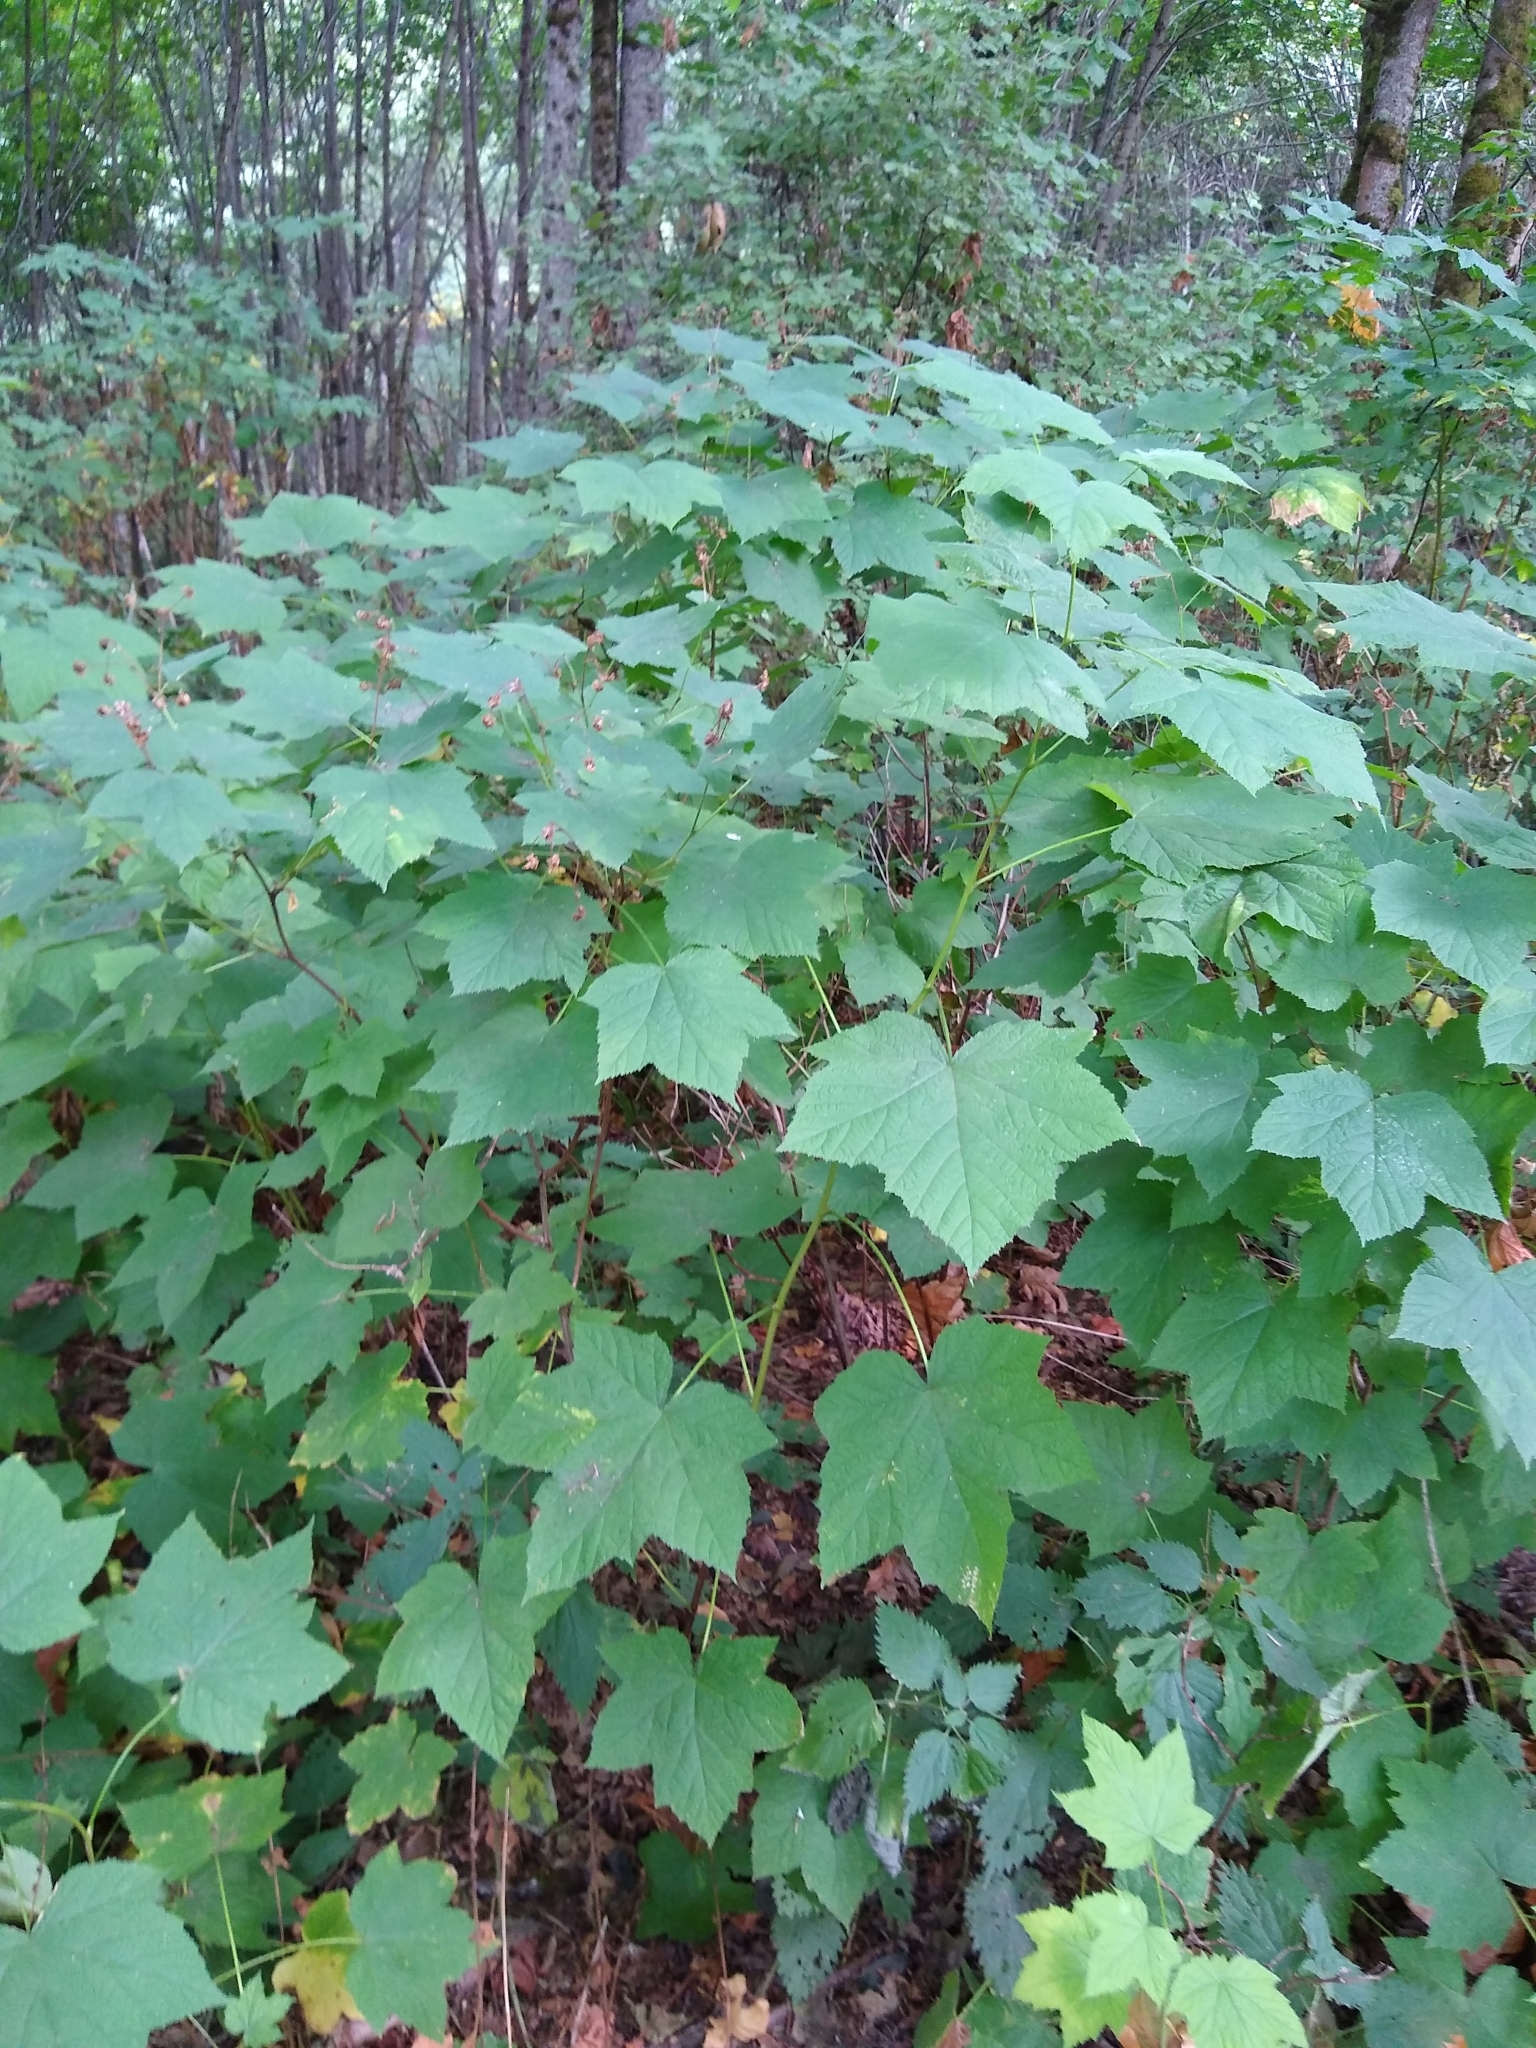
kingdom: Plantae
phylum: Tracheophyta
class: Magnoliopsida
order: Rosales
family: Rosaceae
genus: Rubus
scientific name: Rubus parviflorus
